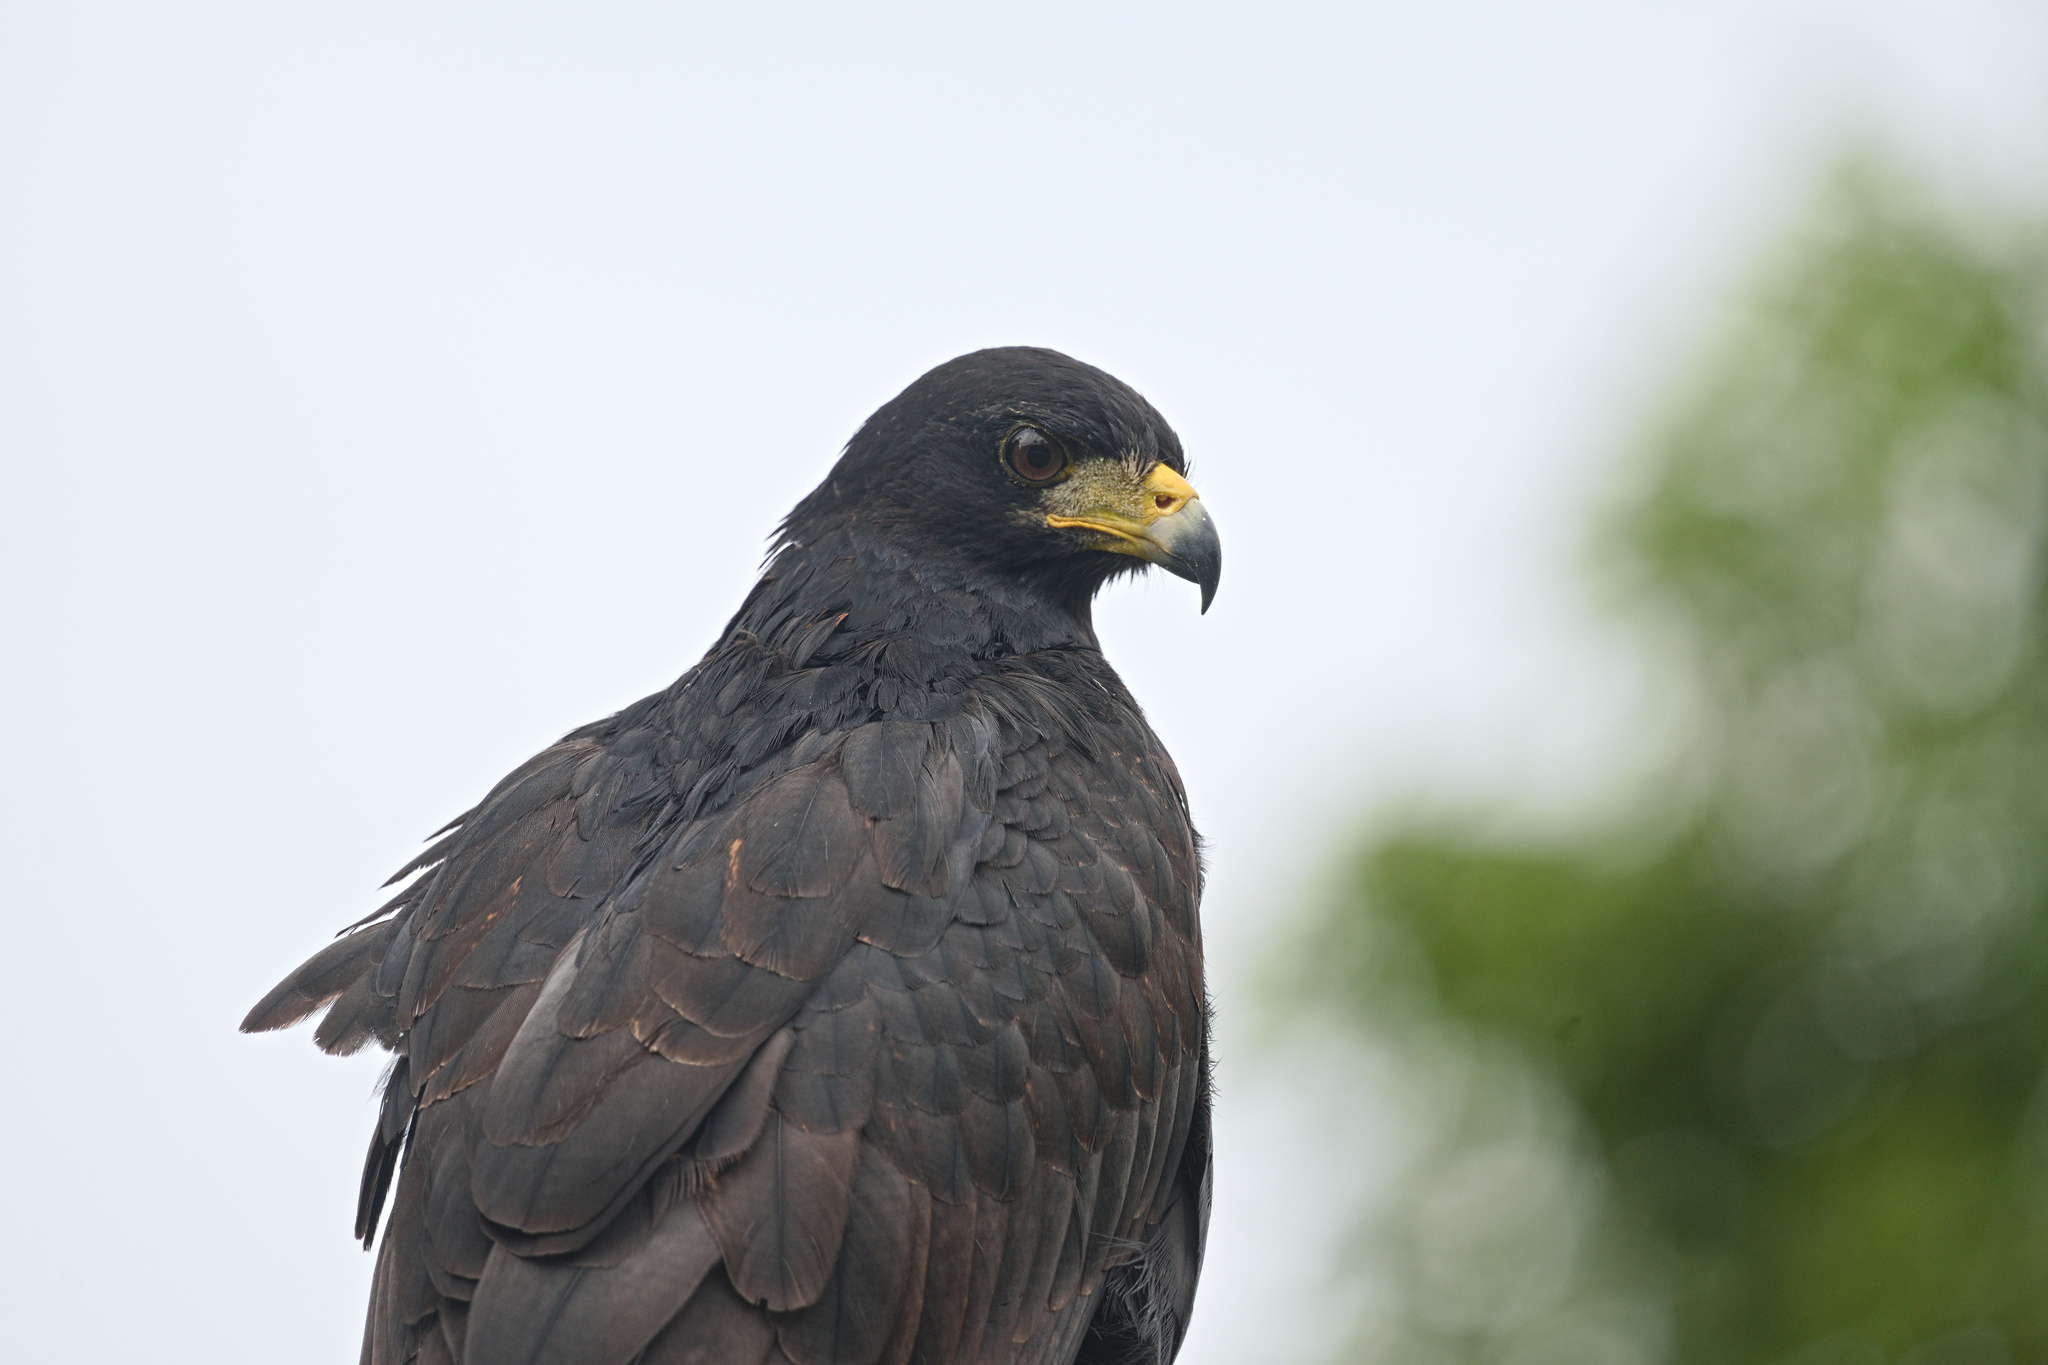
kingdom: Animalia
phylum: Chordata
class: Aves
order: Accipitriformes
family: Accipitridae
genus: Buteogallus
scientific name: Buteogallus anthracinus
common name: Common black hawk
